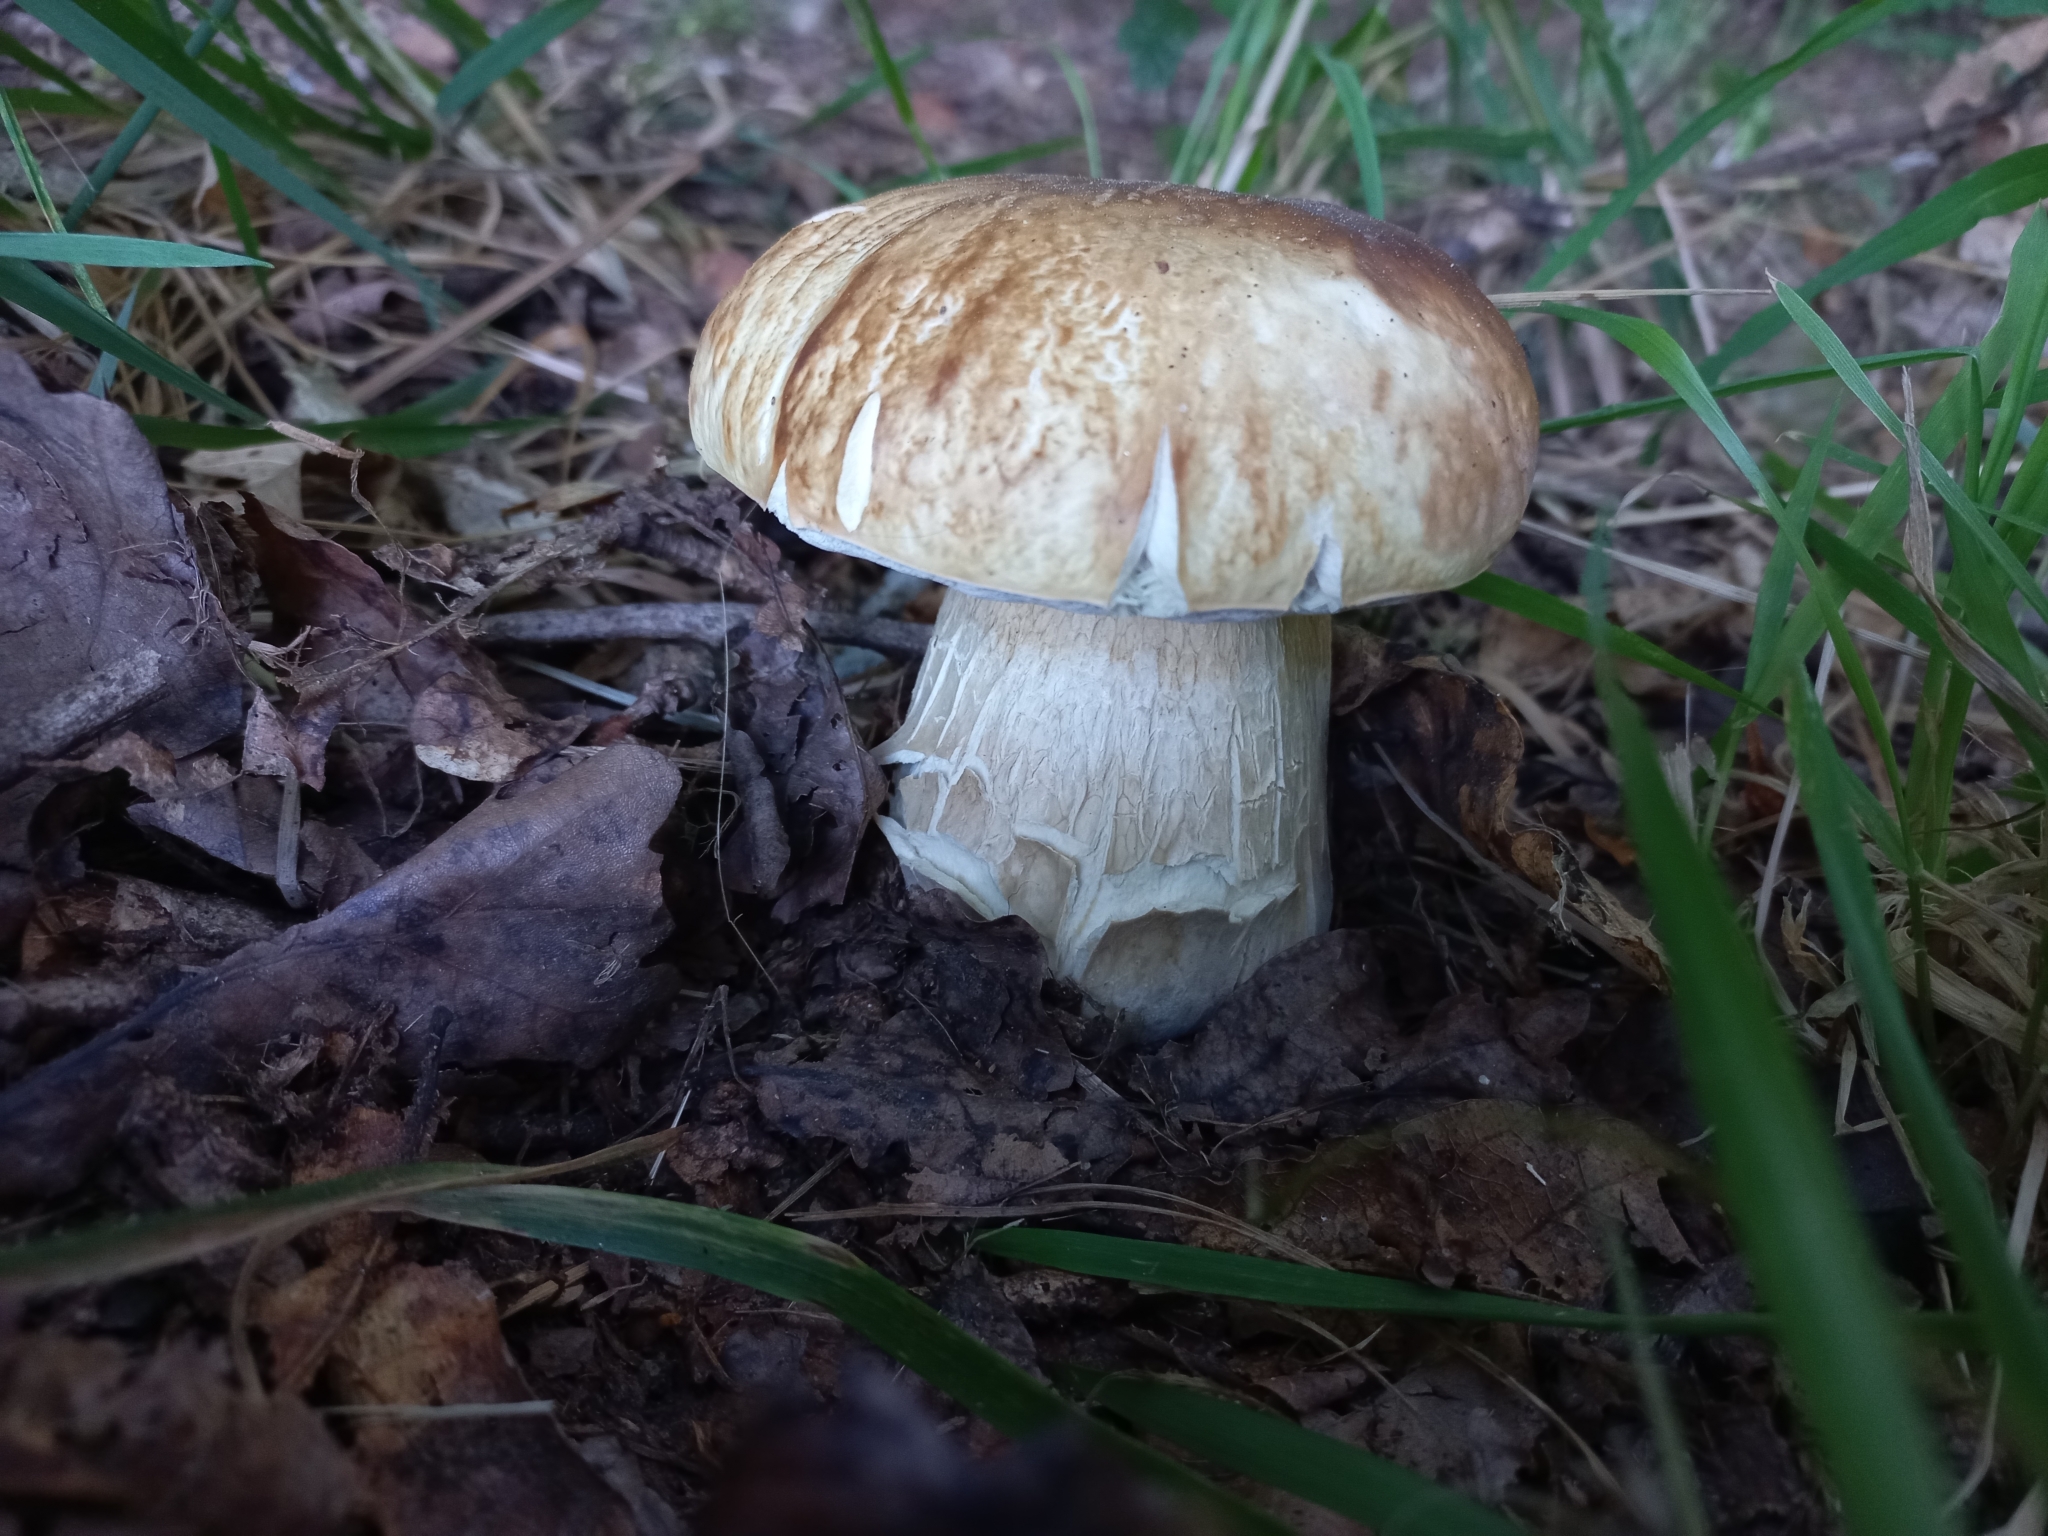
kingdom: Fungi
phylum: Basidiomycota
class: Agaricomycetes
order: Boletales
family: Boletaceae
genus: Boletus
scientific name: Boletus edulis
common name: Cep
